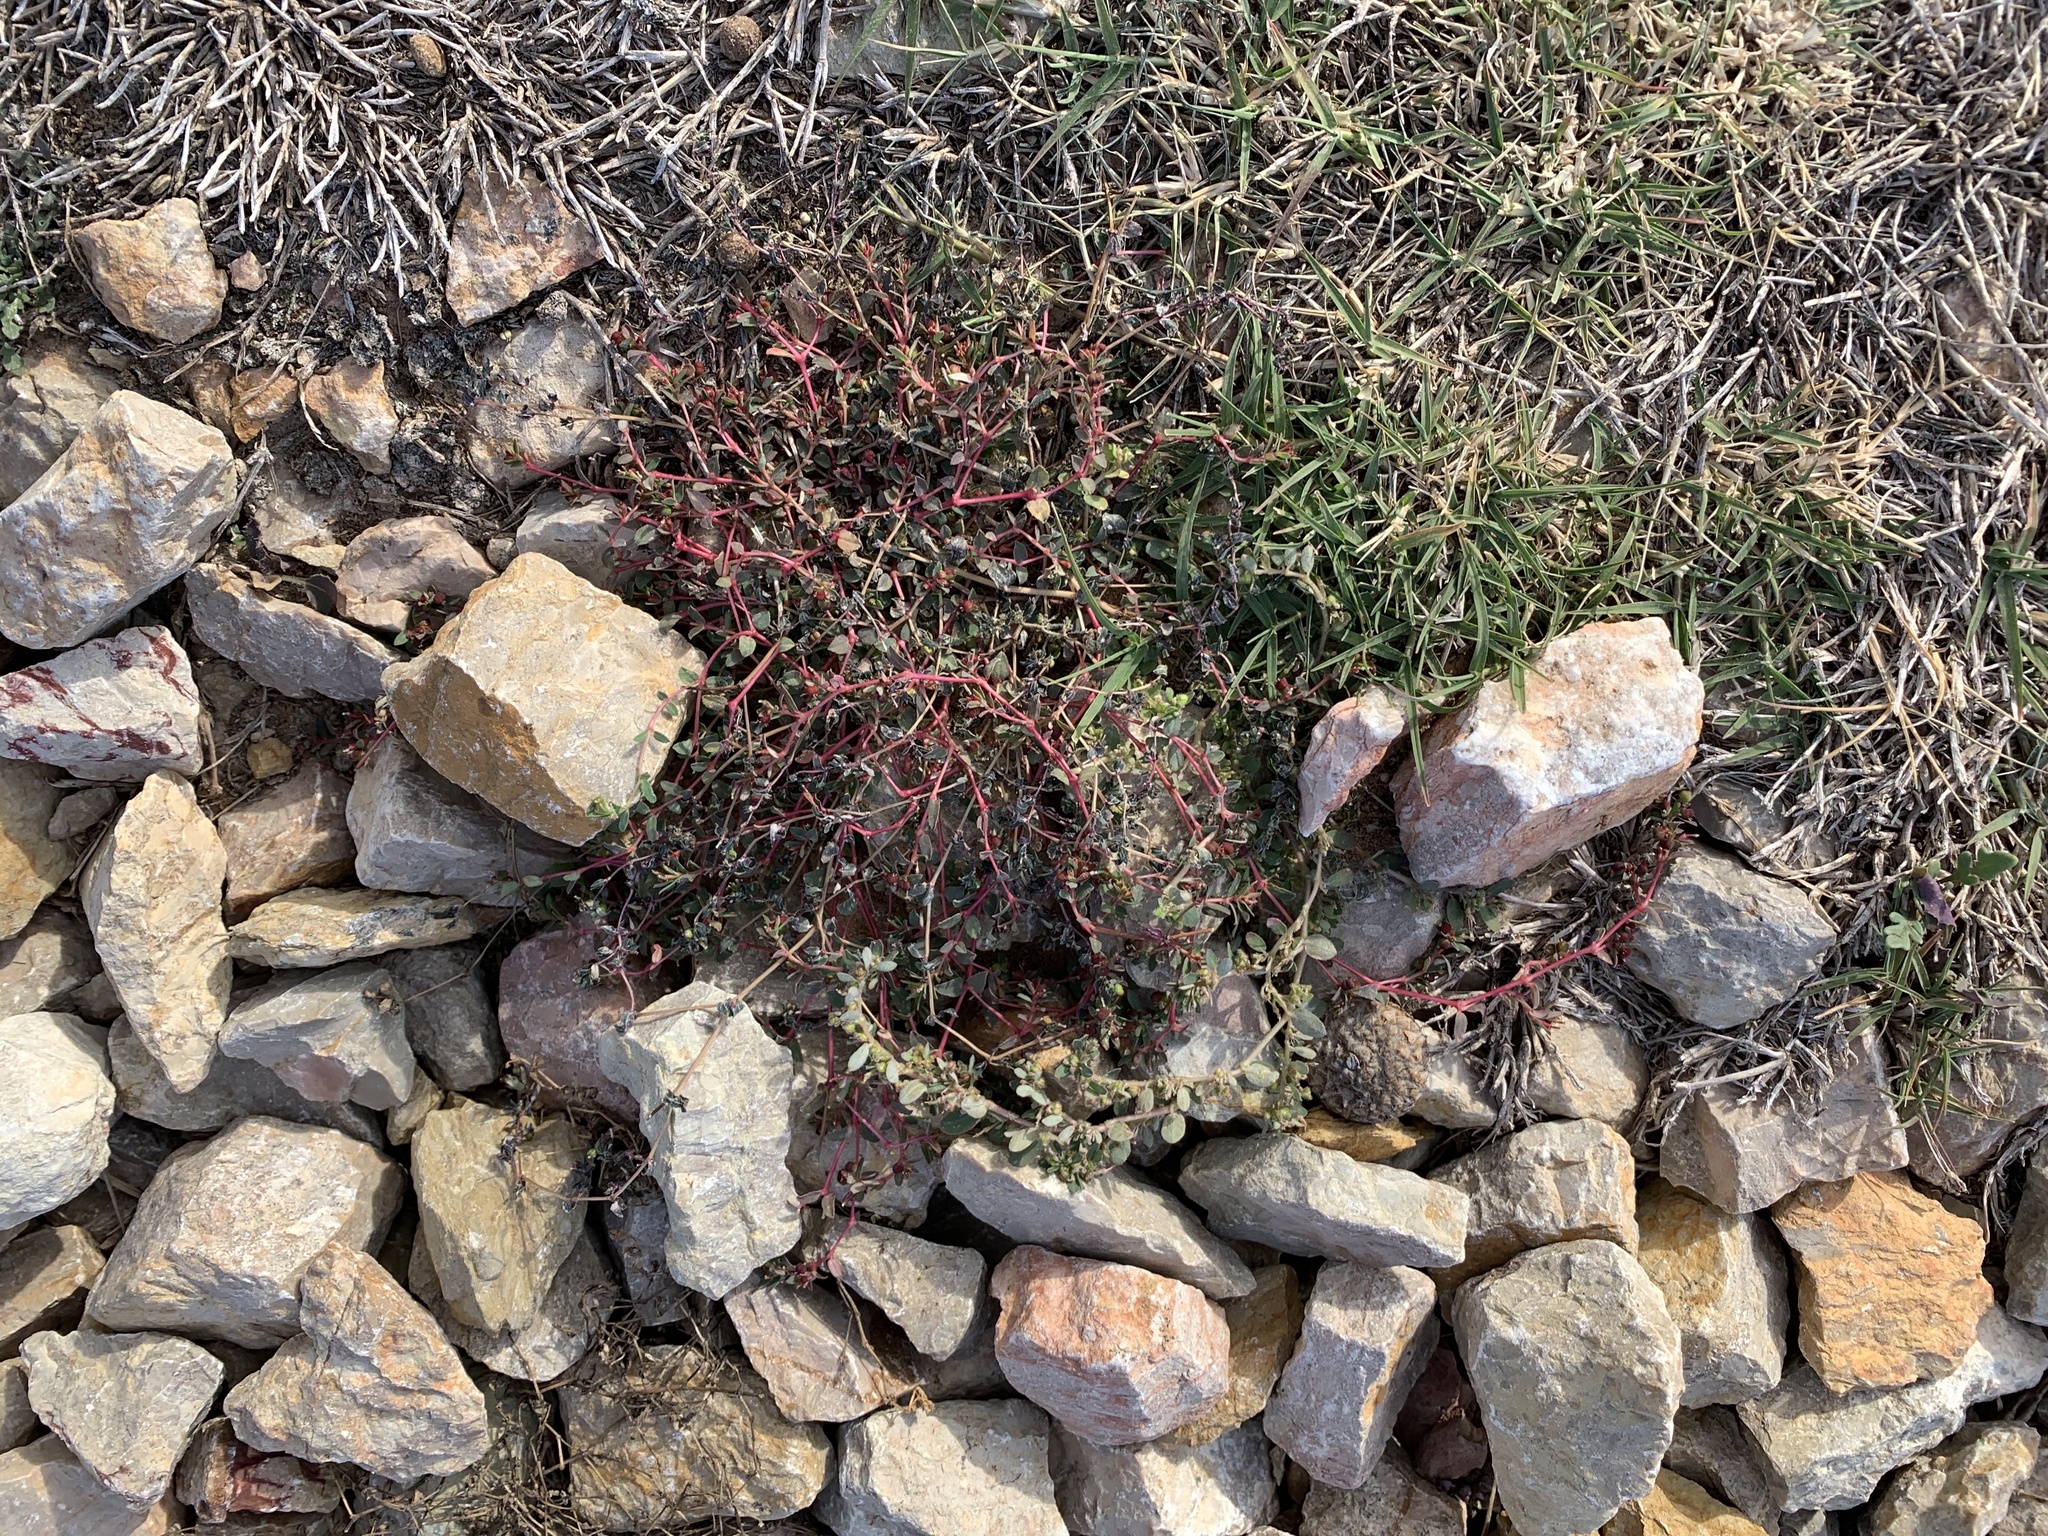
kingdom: Plantae
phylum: Tracheophyta
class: Magnoliopsida
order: Malpighiales
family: Euphorbiaceae
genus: Euphorbia
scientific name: Euphorbia vermiculata
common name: Hairy spurge
